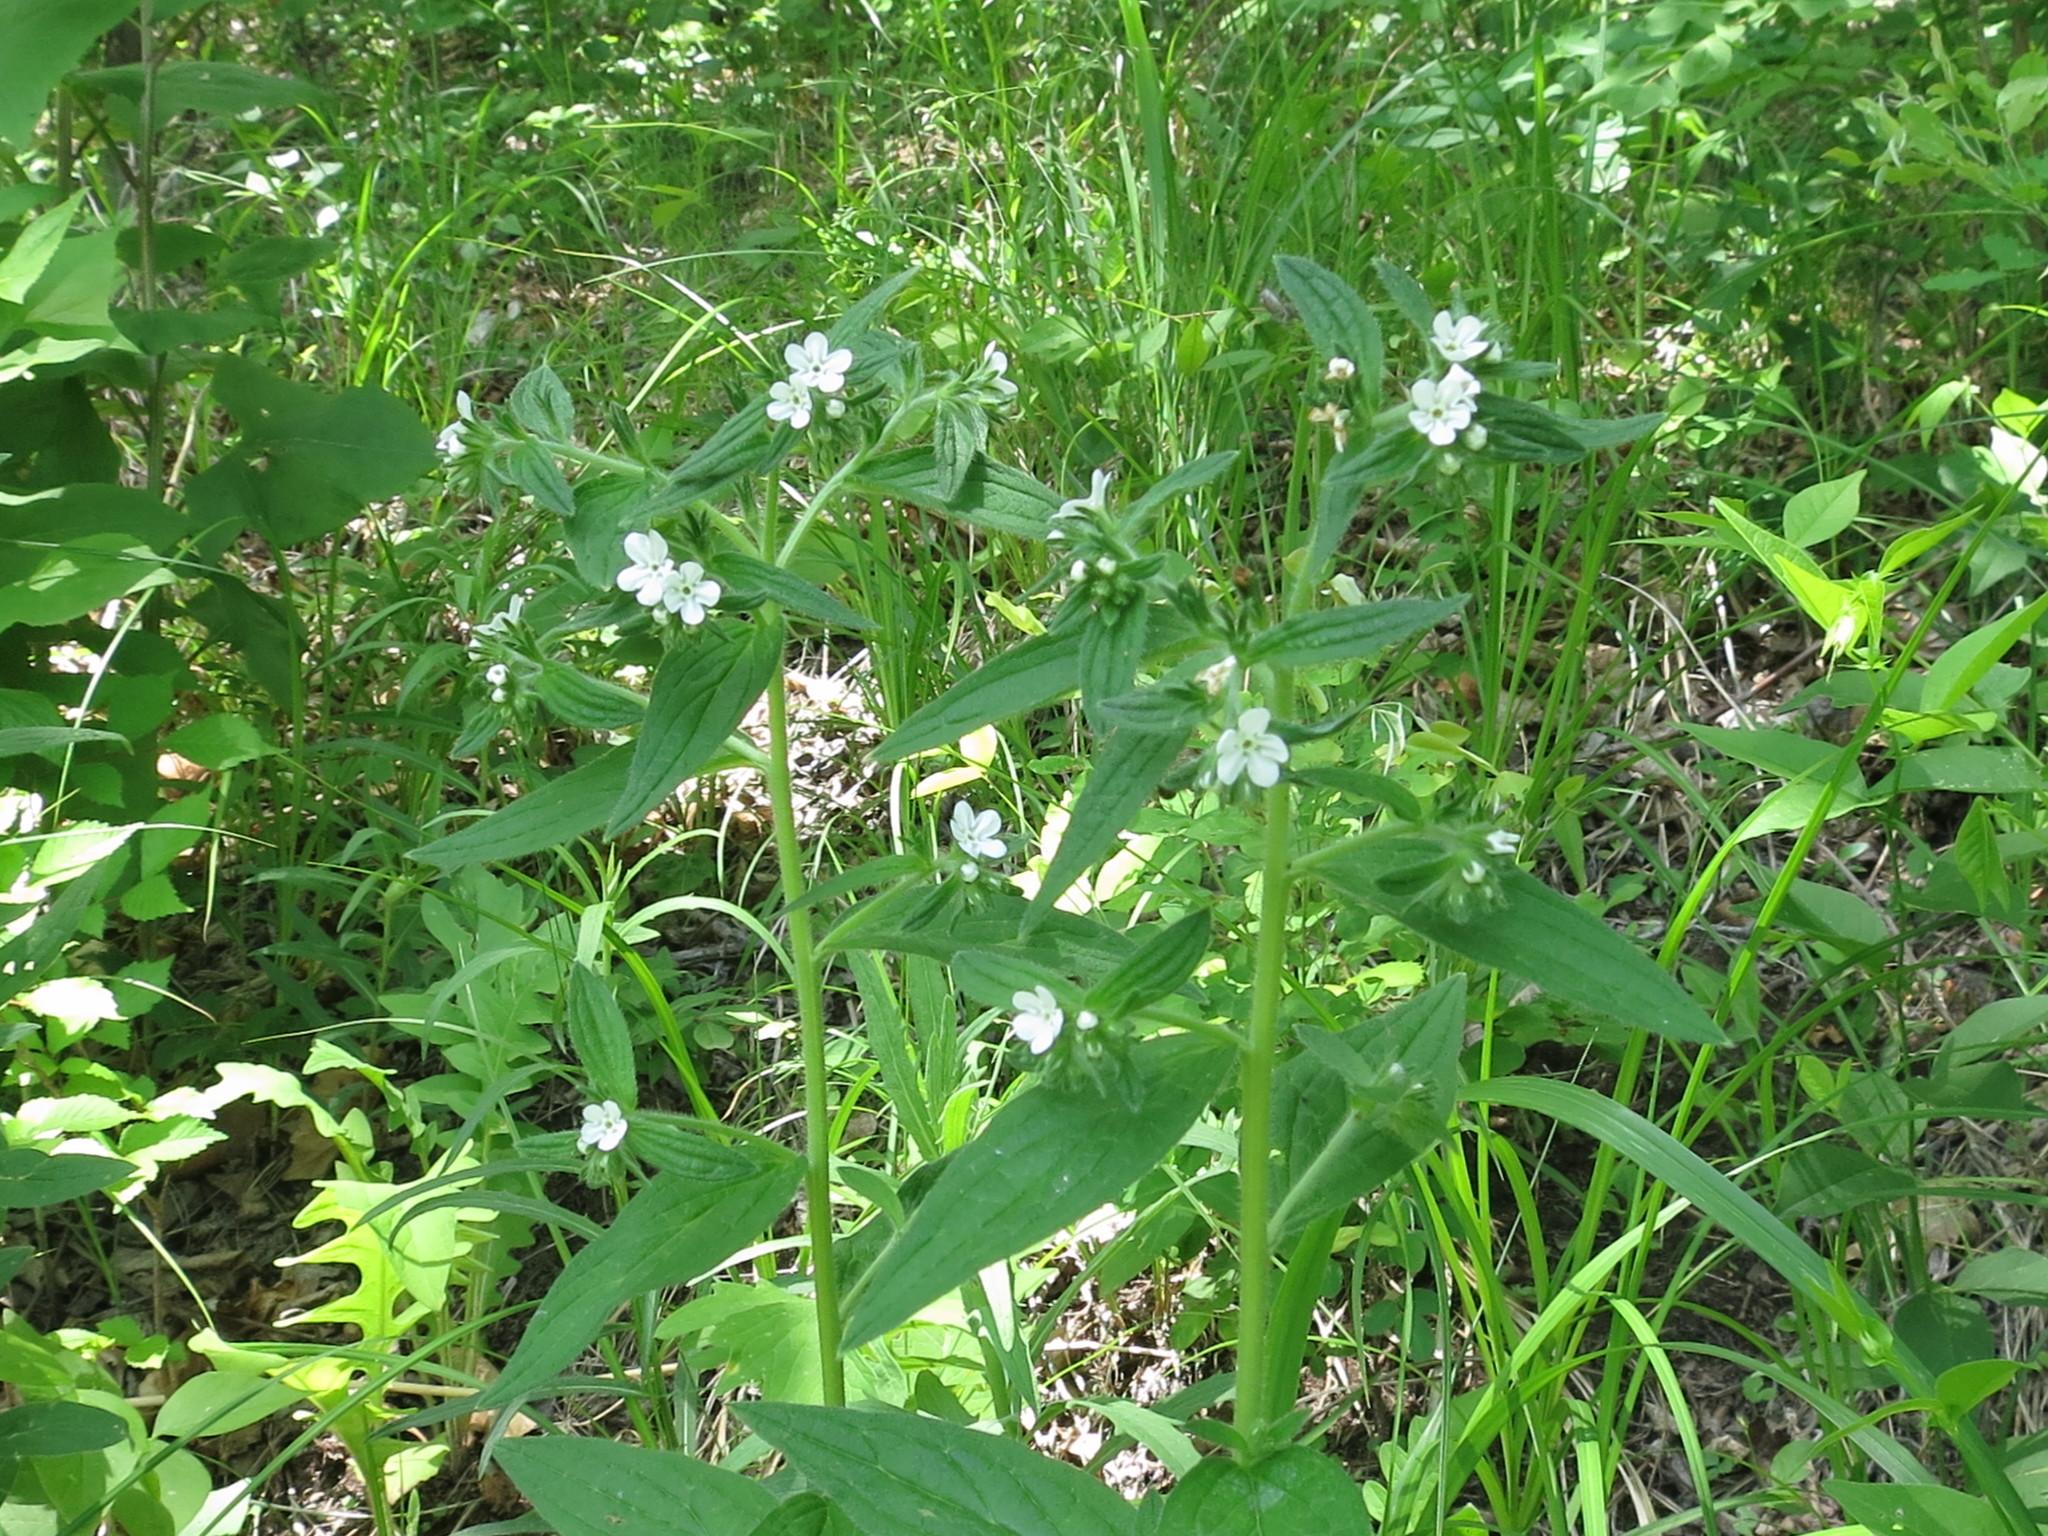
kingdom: Plantae
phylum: Tracheophyta
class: Magnoliopsida
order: Boraginales
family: Boraginaceae
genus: Lithospermum
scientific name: Lithospermum erythrorhizon
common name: Purple gromwell
